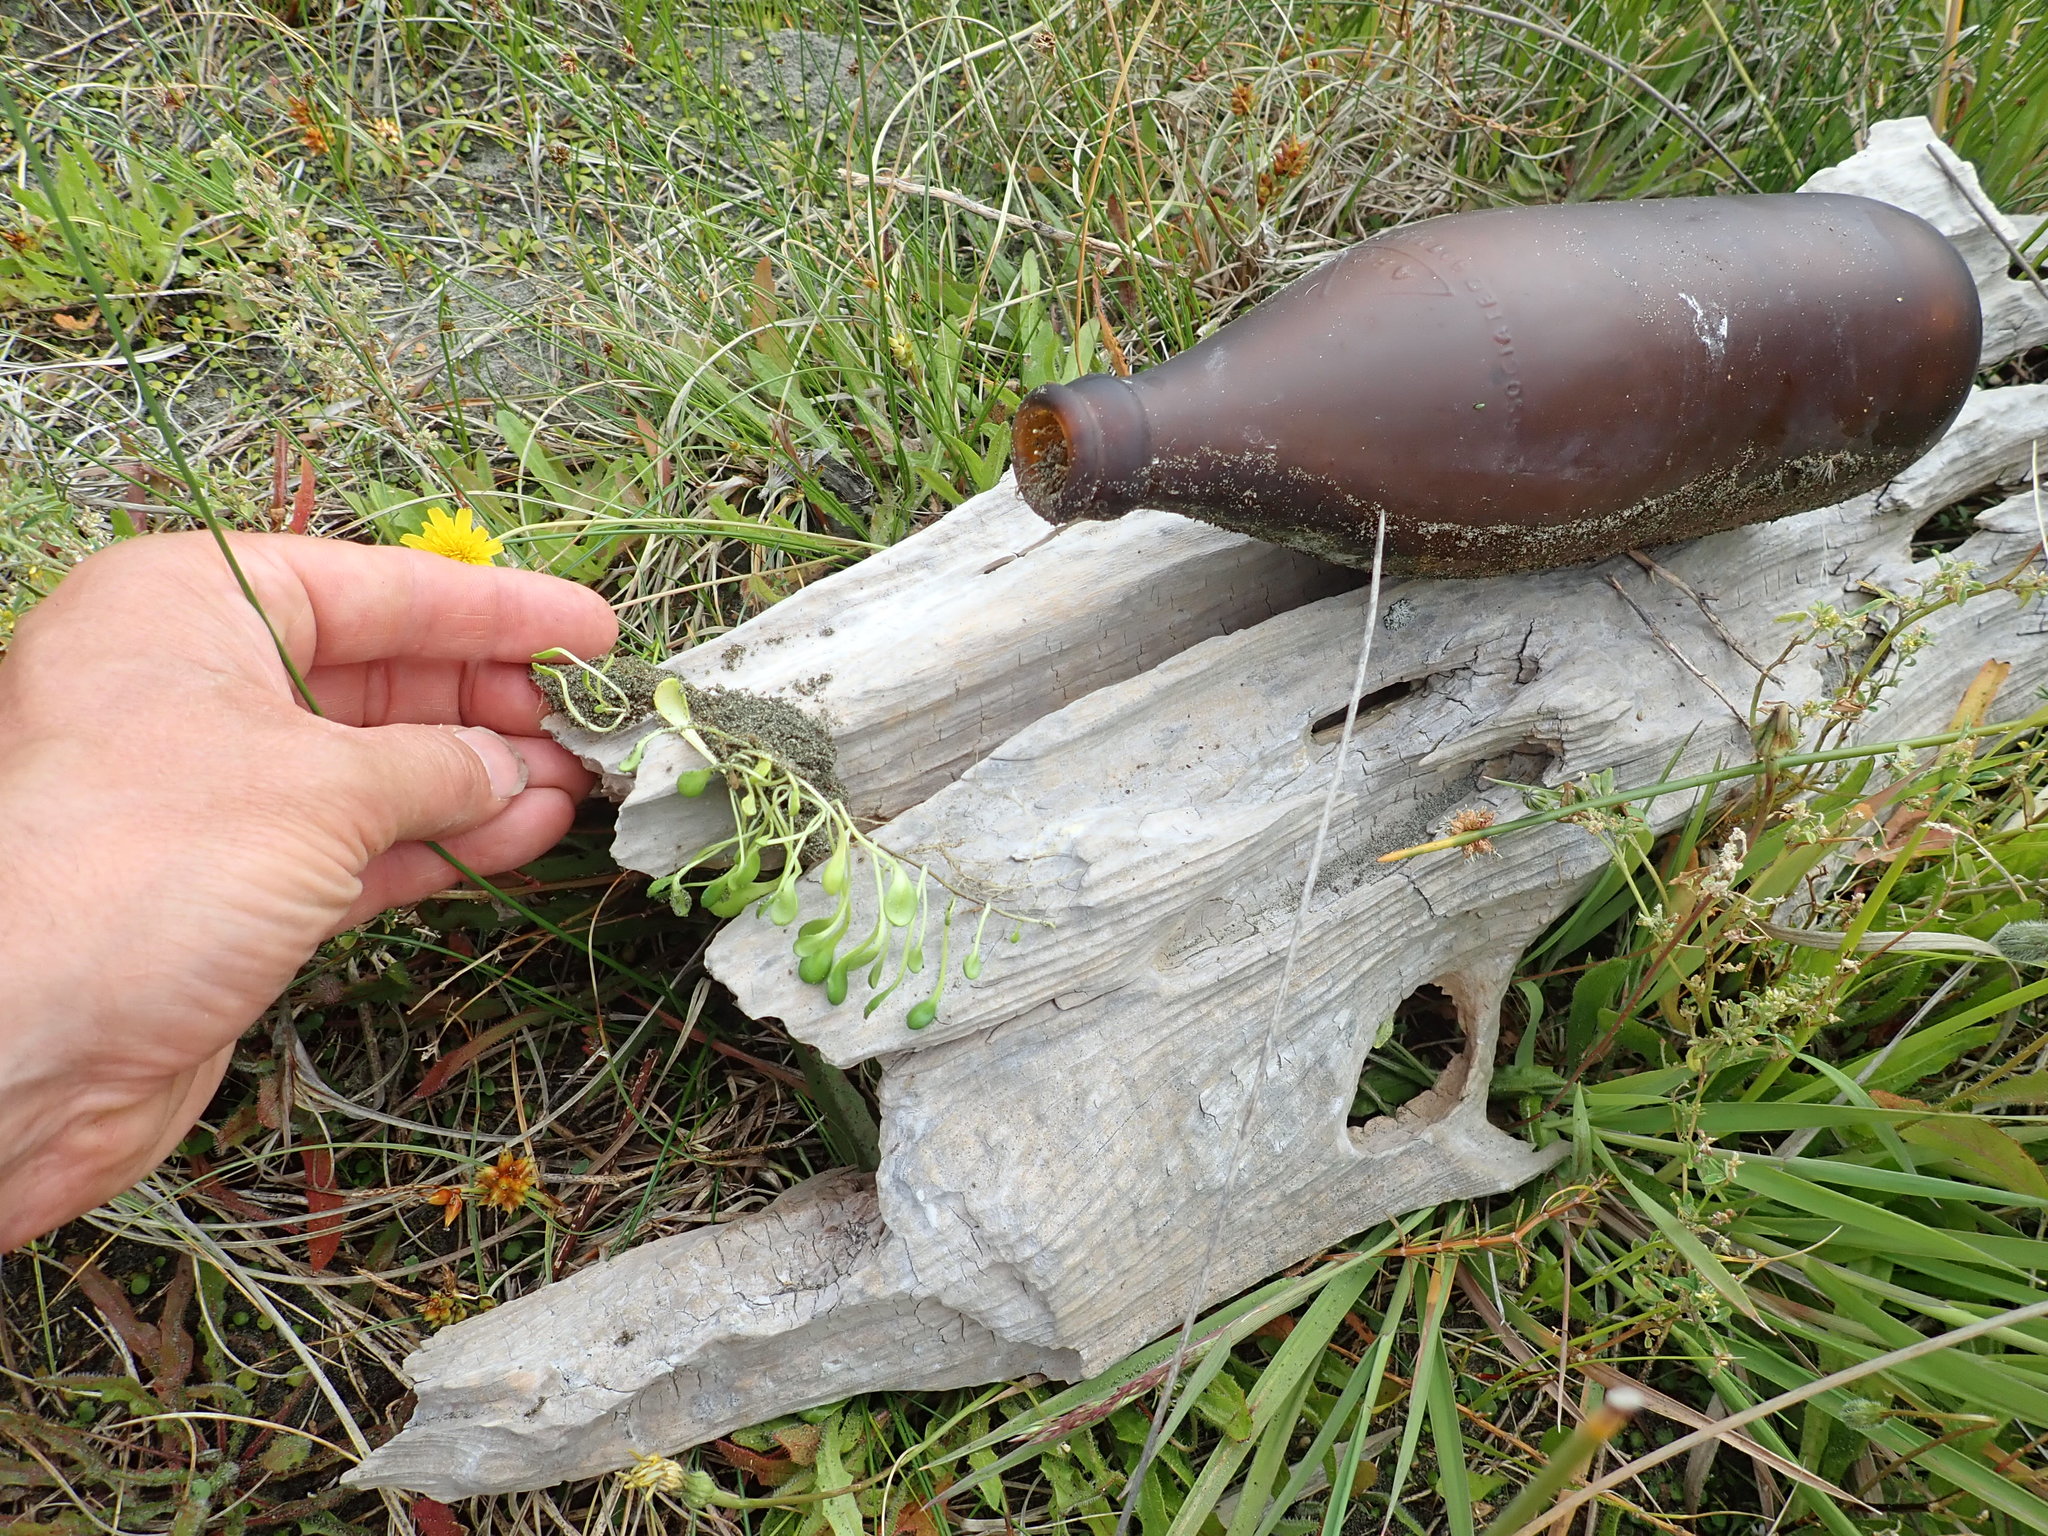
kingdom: Plantae
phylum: Tracheophyta
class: Magnoliopsida
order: Asterales
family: Goodeniaceae
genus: Goodenia
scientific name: Goodenia heenanii
